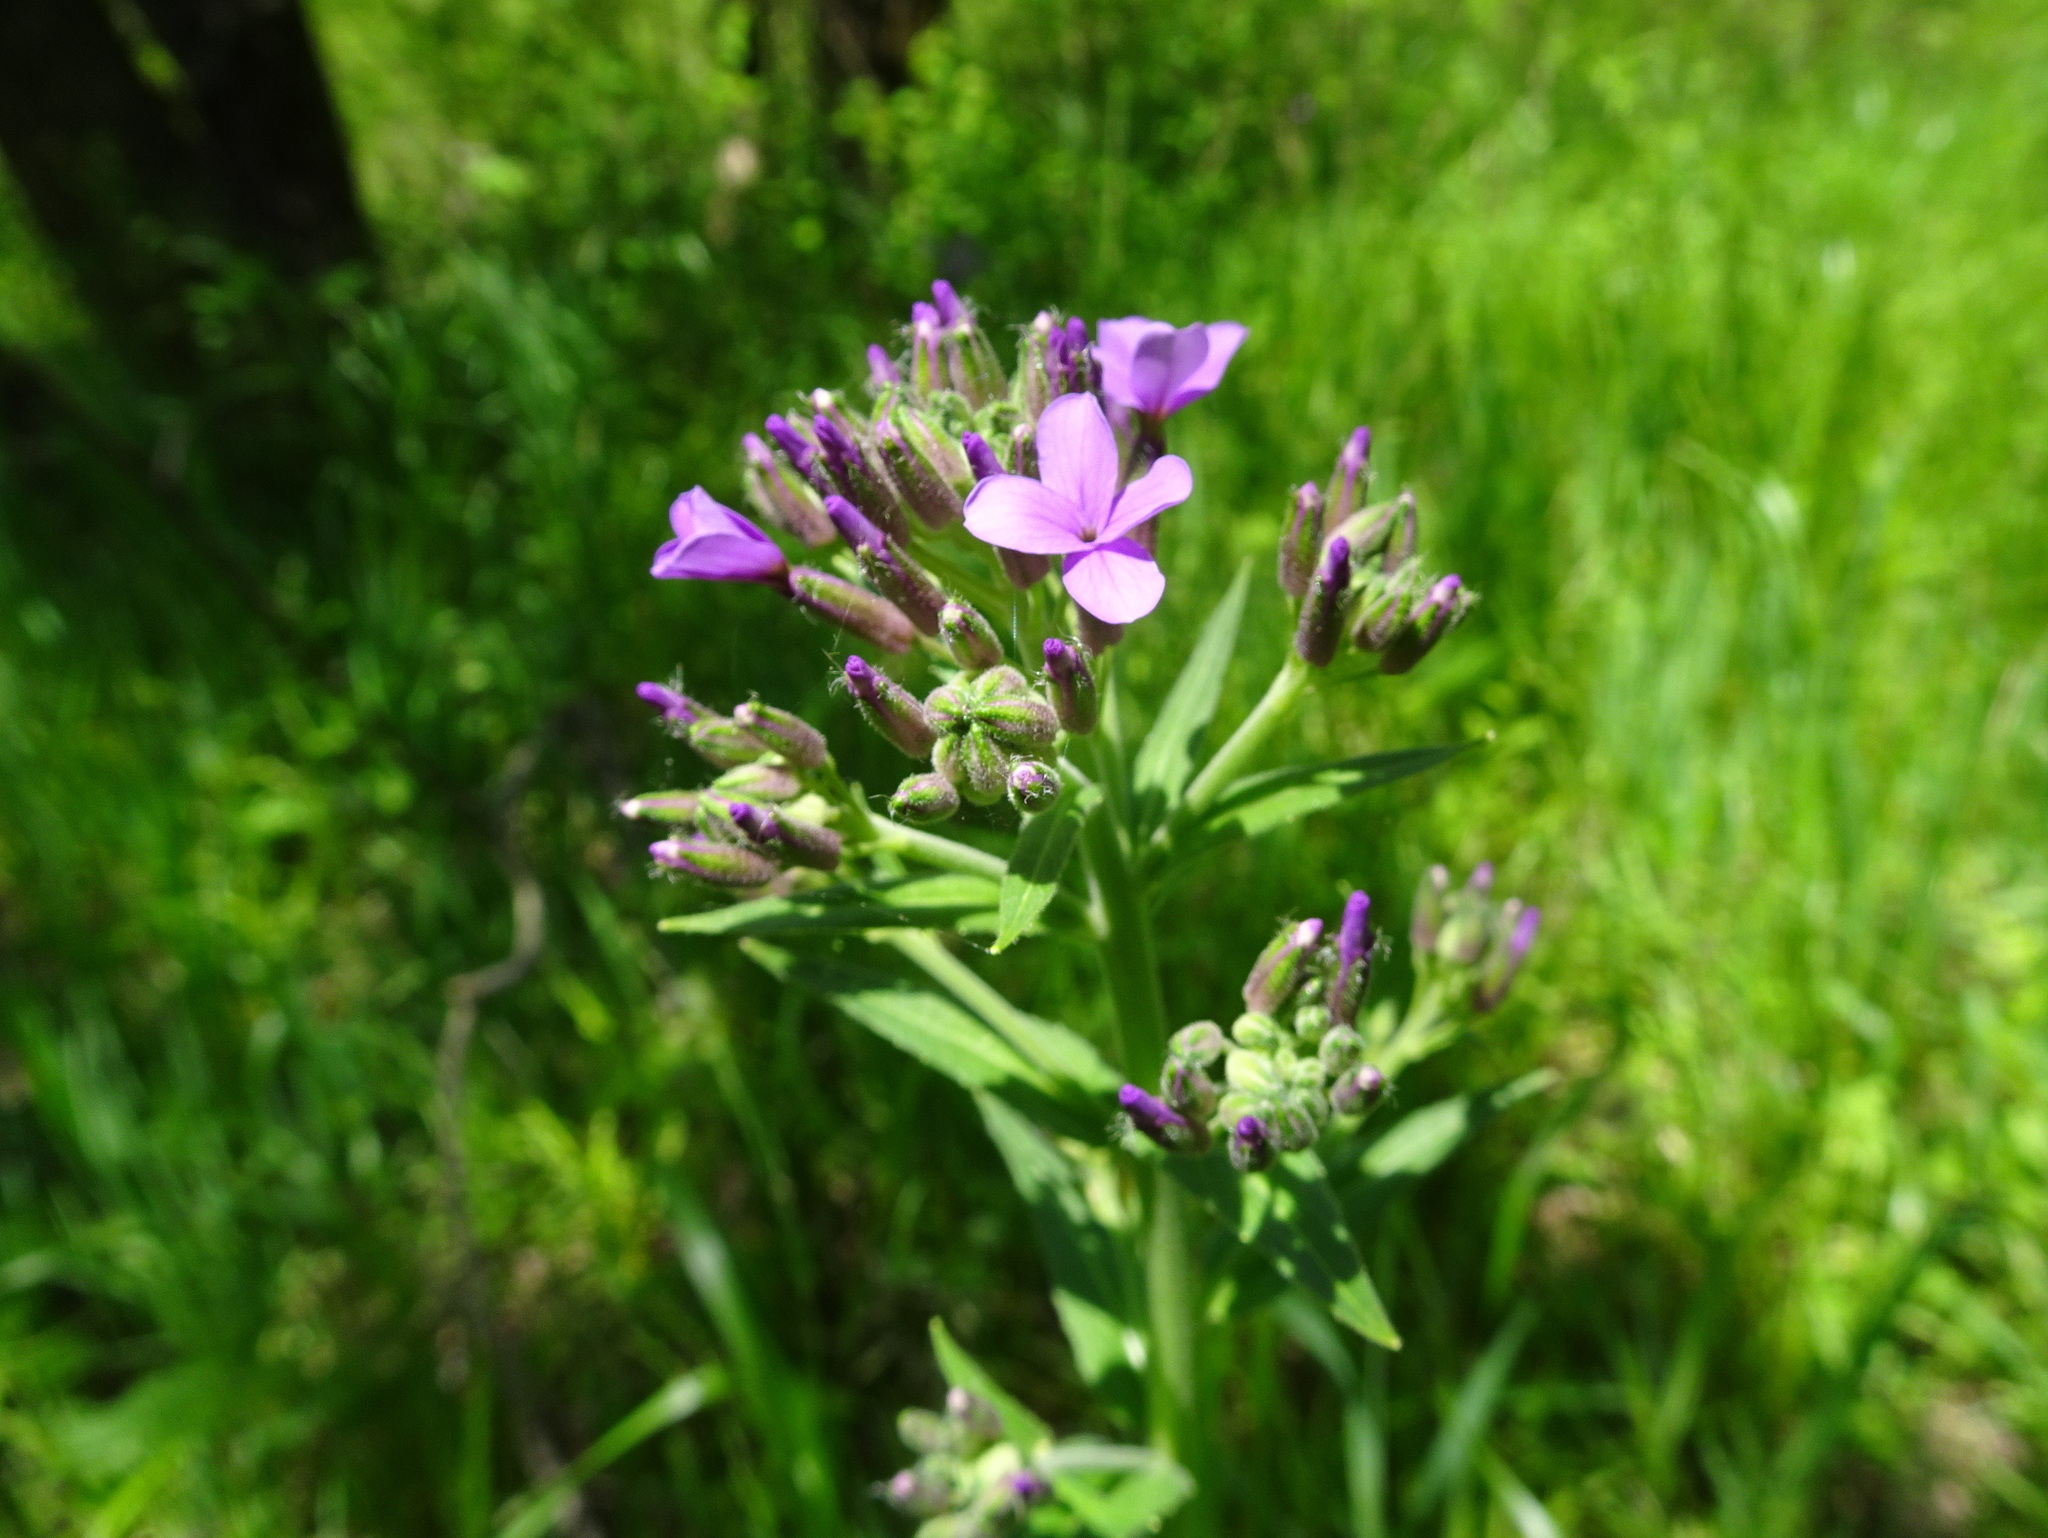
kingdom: Plantae
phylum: Tracheophyta
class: Magnoliopsida
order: Brassicales
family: Brassicaceae
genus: Hesperis
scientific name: Hesperis matronalis
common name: Dame's-violet
